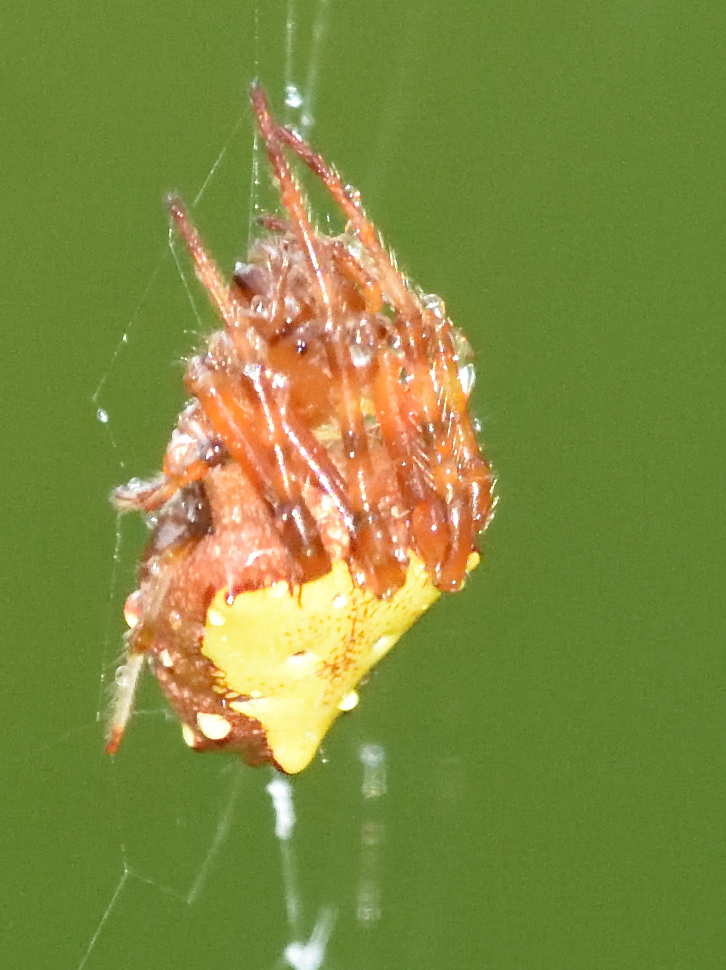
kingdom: Animalia
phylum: Arthropoda
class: Arachnida
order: Araneae
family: Araneidae
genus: Verrucosa
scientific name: Verrucosa arenata
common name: Orb weavers
